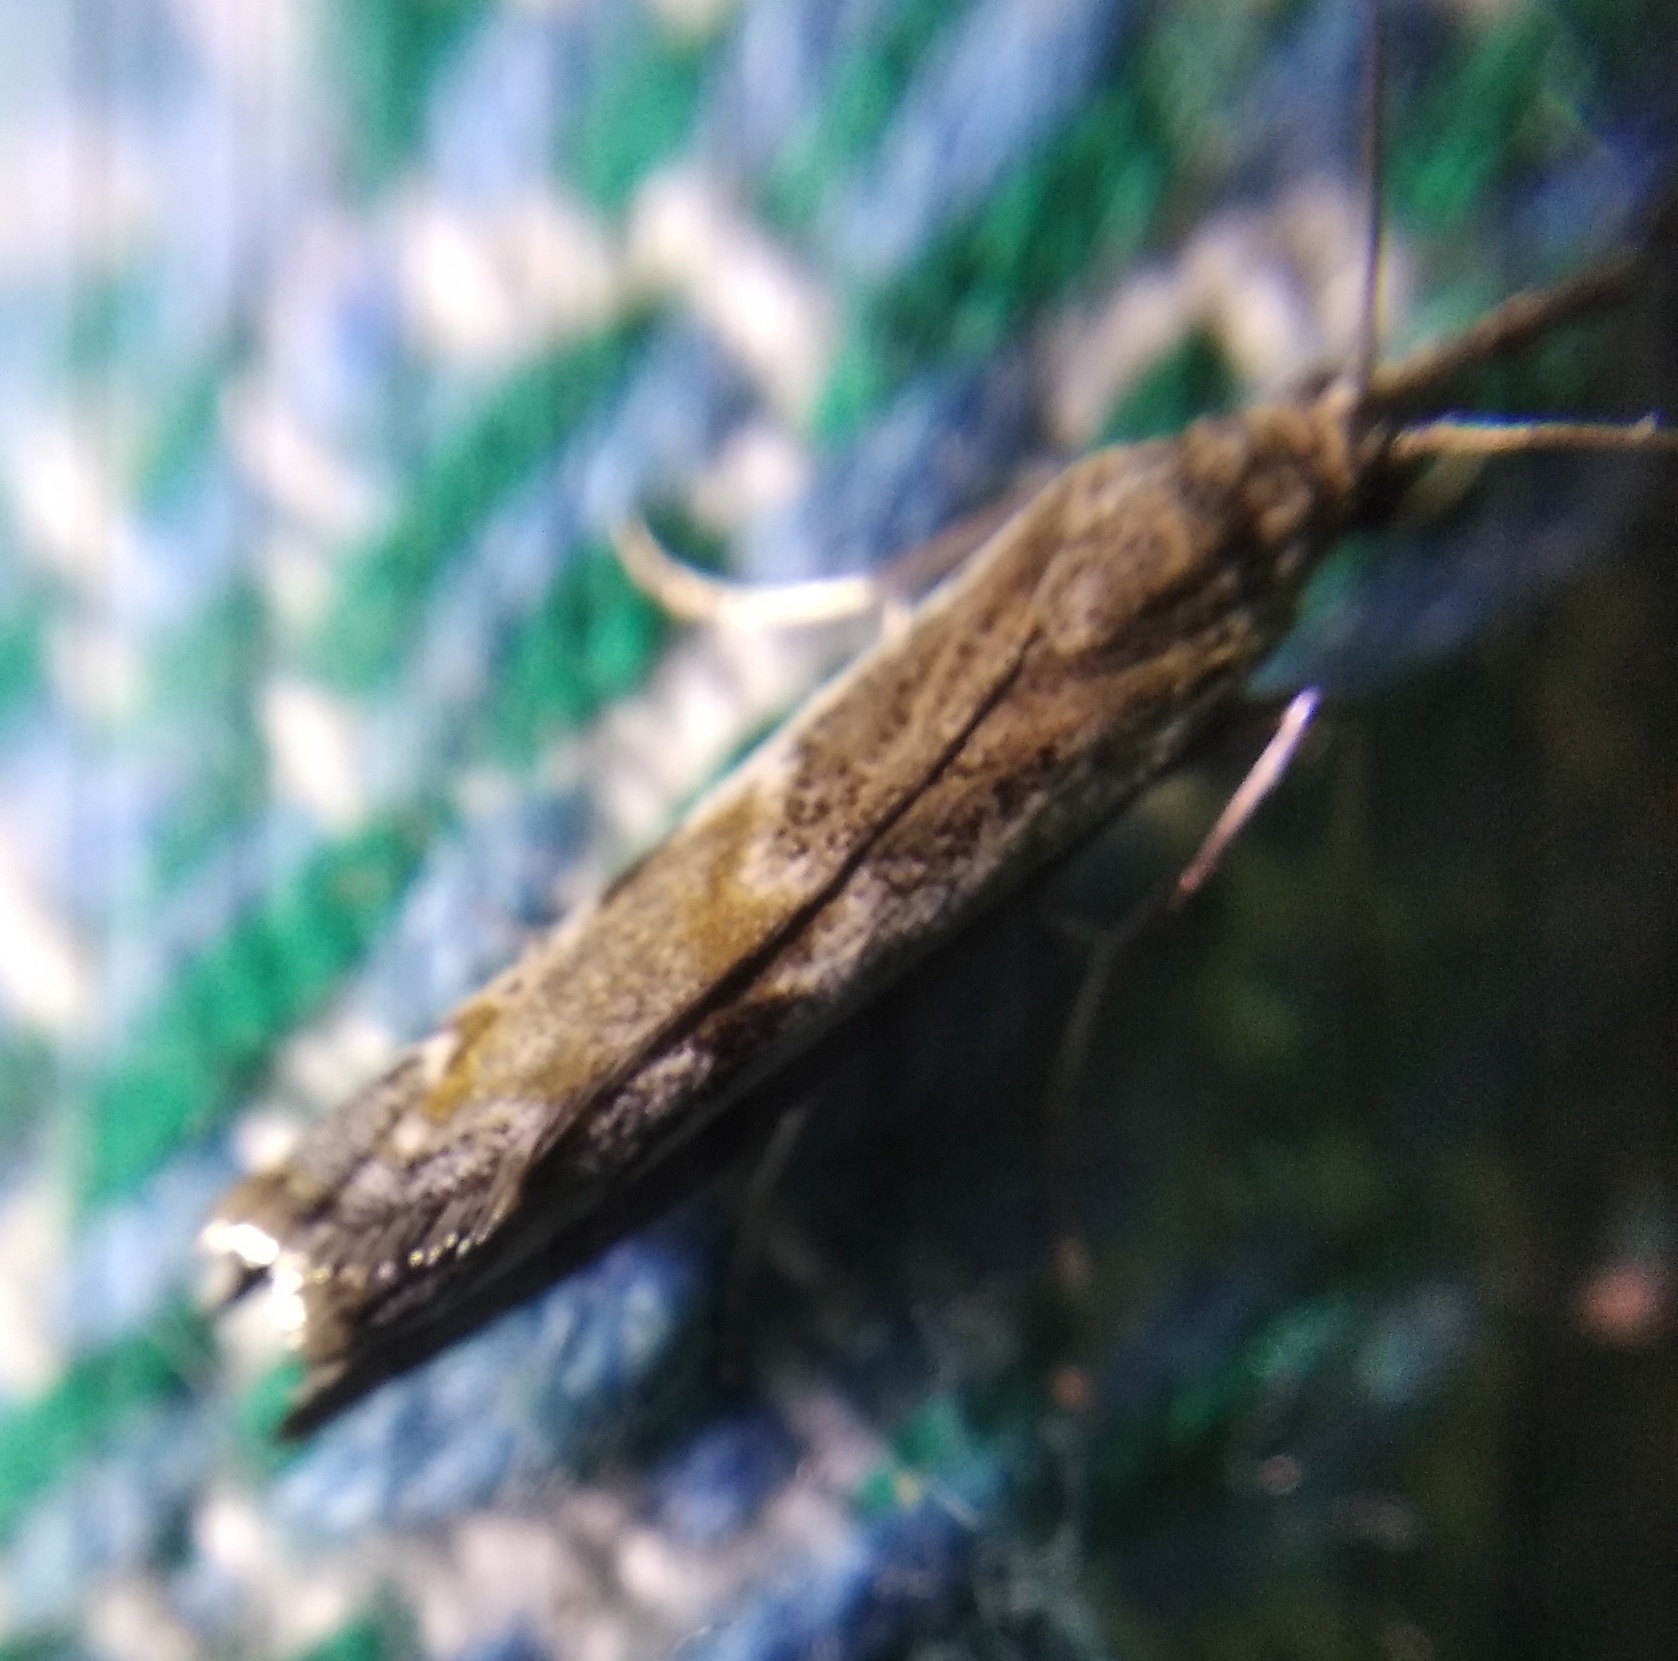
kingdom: Animalia
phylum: Arthropoda
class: Insecta
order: Lepidoptera
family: Crambidae
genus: Platytes
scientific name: Platytes alpinella
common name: Hook-tipped grass-veneer
